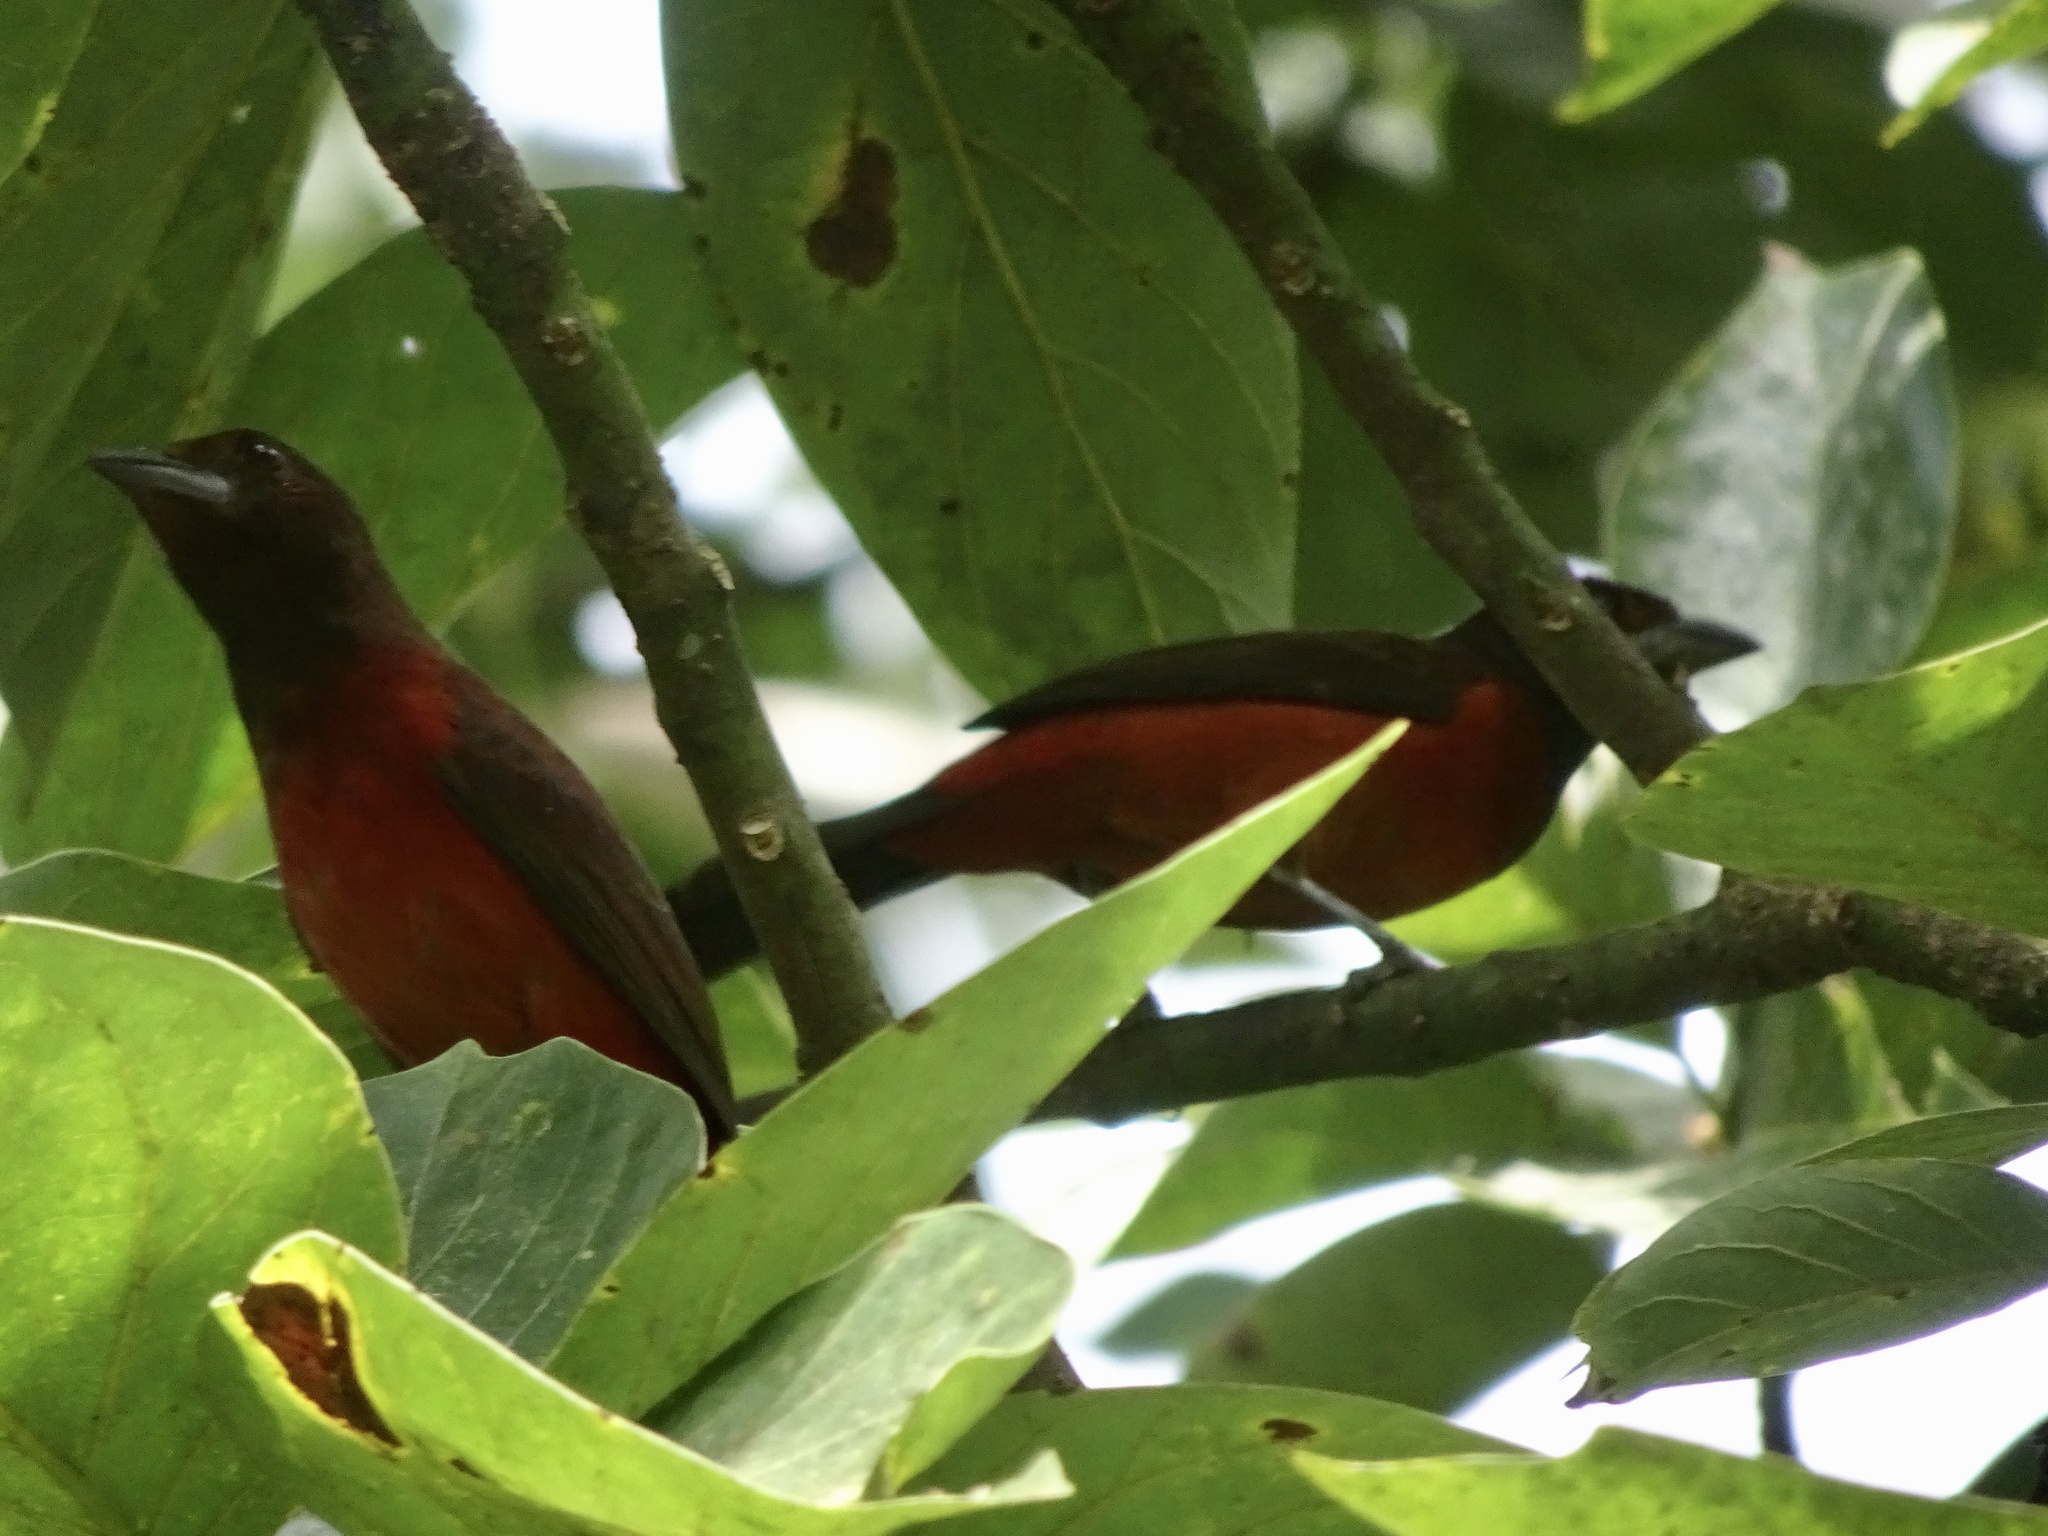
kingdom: Animalia
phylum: Chordata
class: Aves
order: Passeriformes
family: Thraupidae
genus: Ramphocelus
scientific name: Ramphocelus dimidiatus
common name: Crimson-backed tanager
